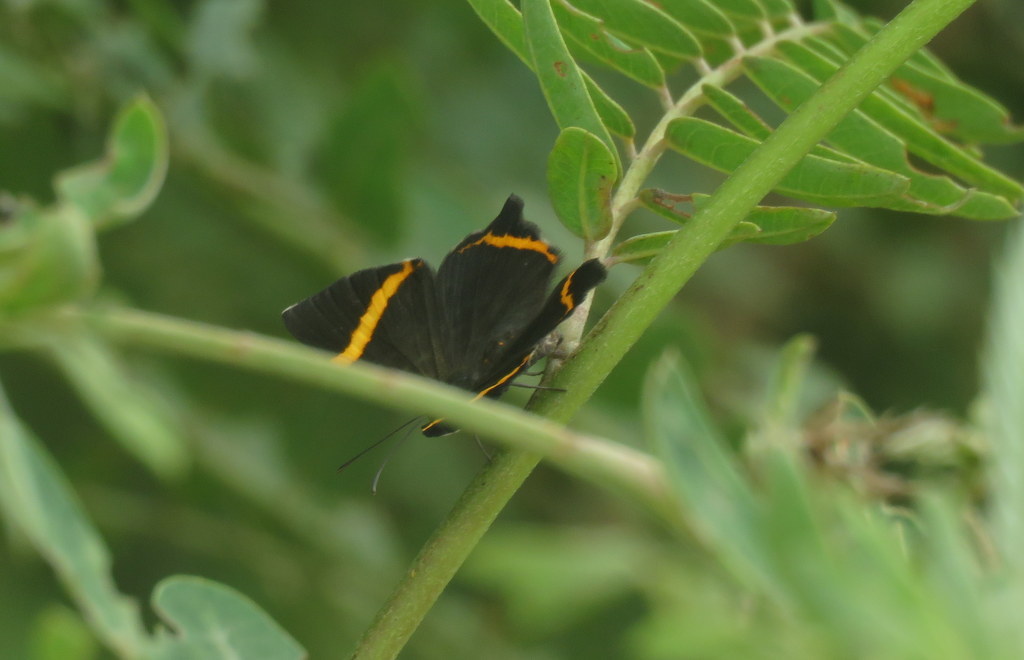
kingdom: Animalia
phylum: Arthropoda
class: Insecta
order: Lepidoptera
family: Riodinidae
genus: Riodina
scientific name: Riodina lysippoides
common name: Little dancer metalmark
